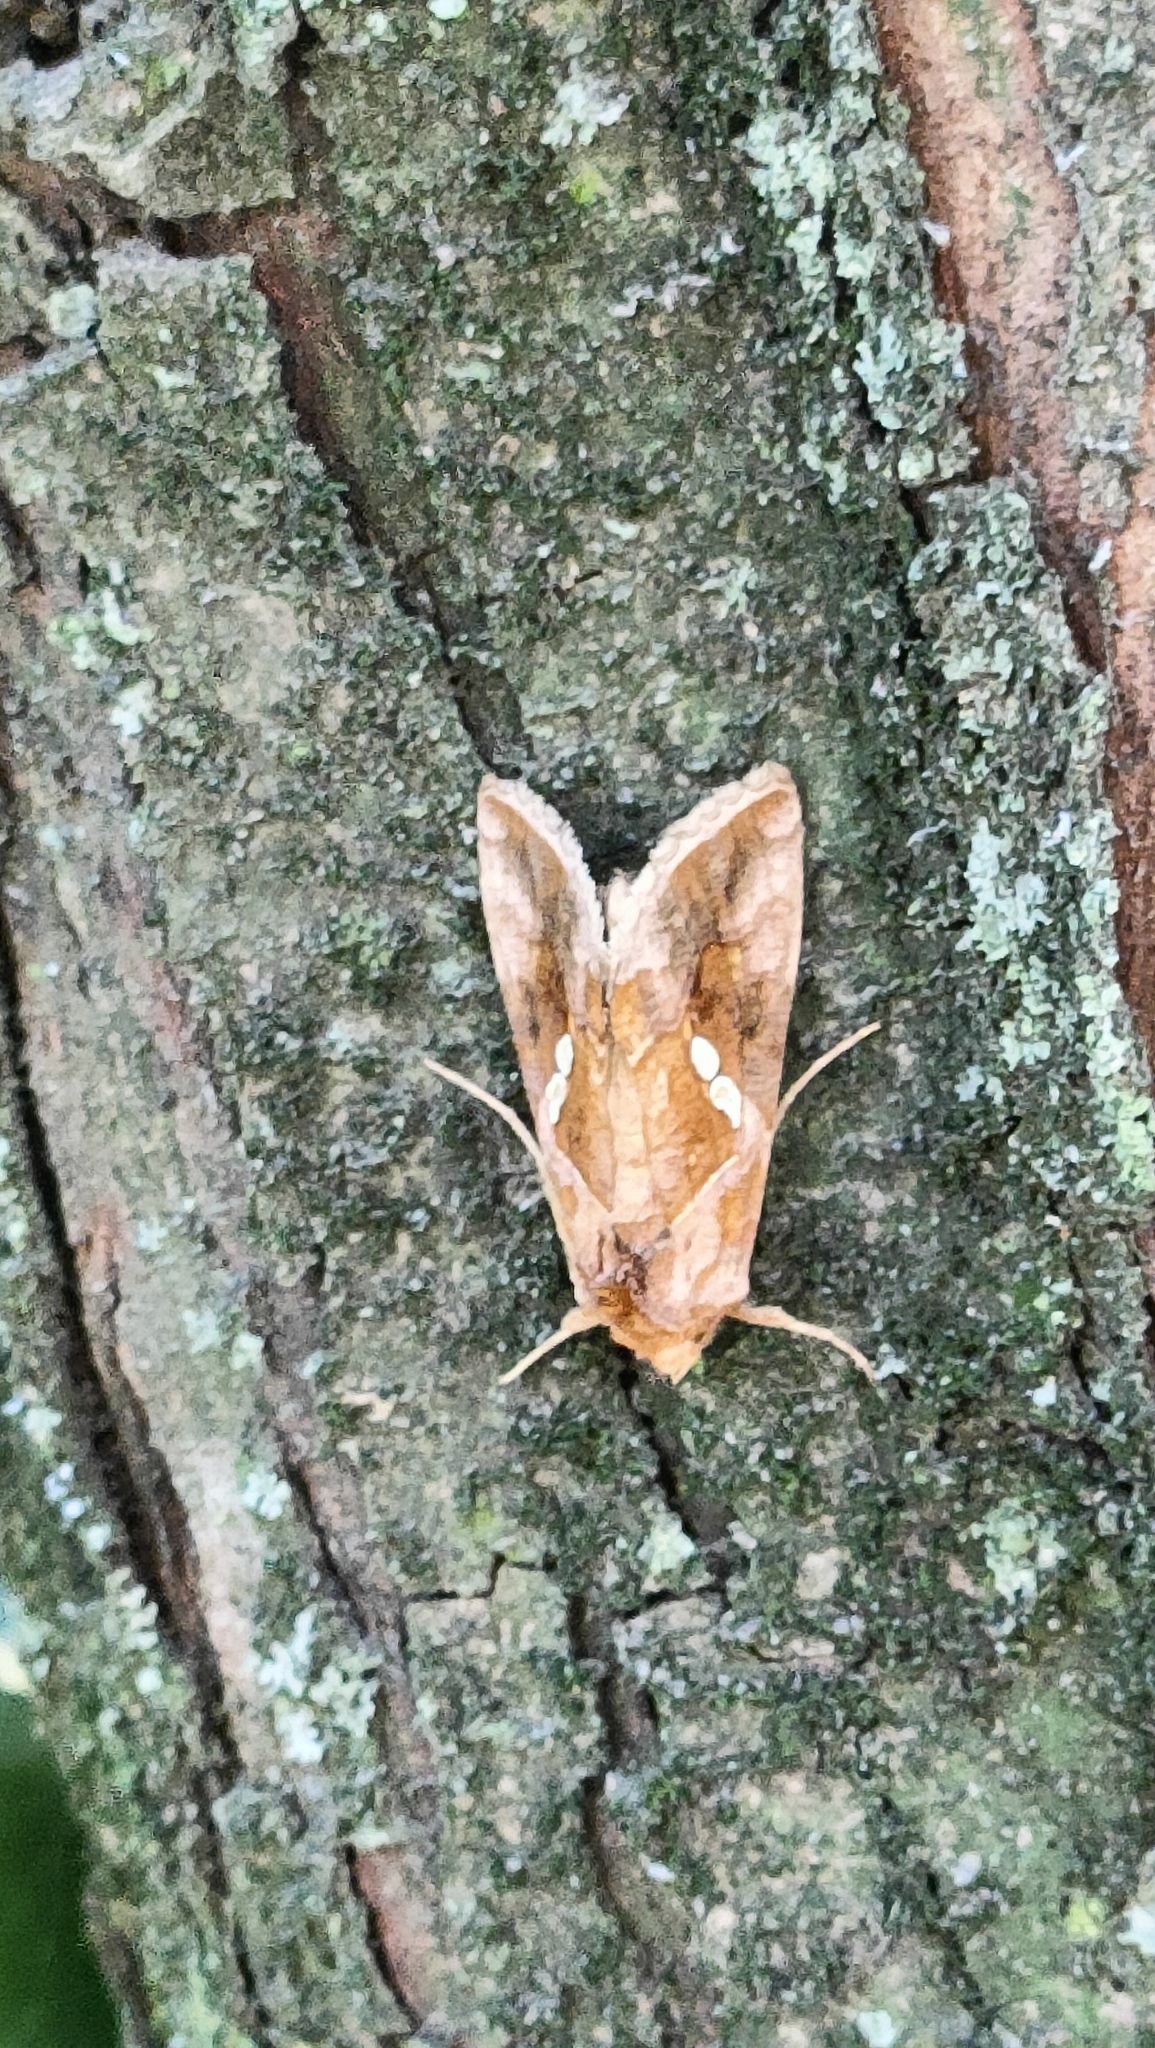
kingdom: Animalia
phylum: Arthropoda
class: Insecta
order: Lepidoptera
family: Noctuidae
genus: Chrysodeixis
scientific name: Chrysodeixis chalcites
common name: Golden twin-spot
